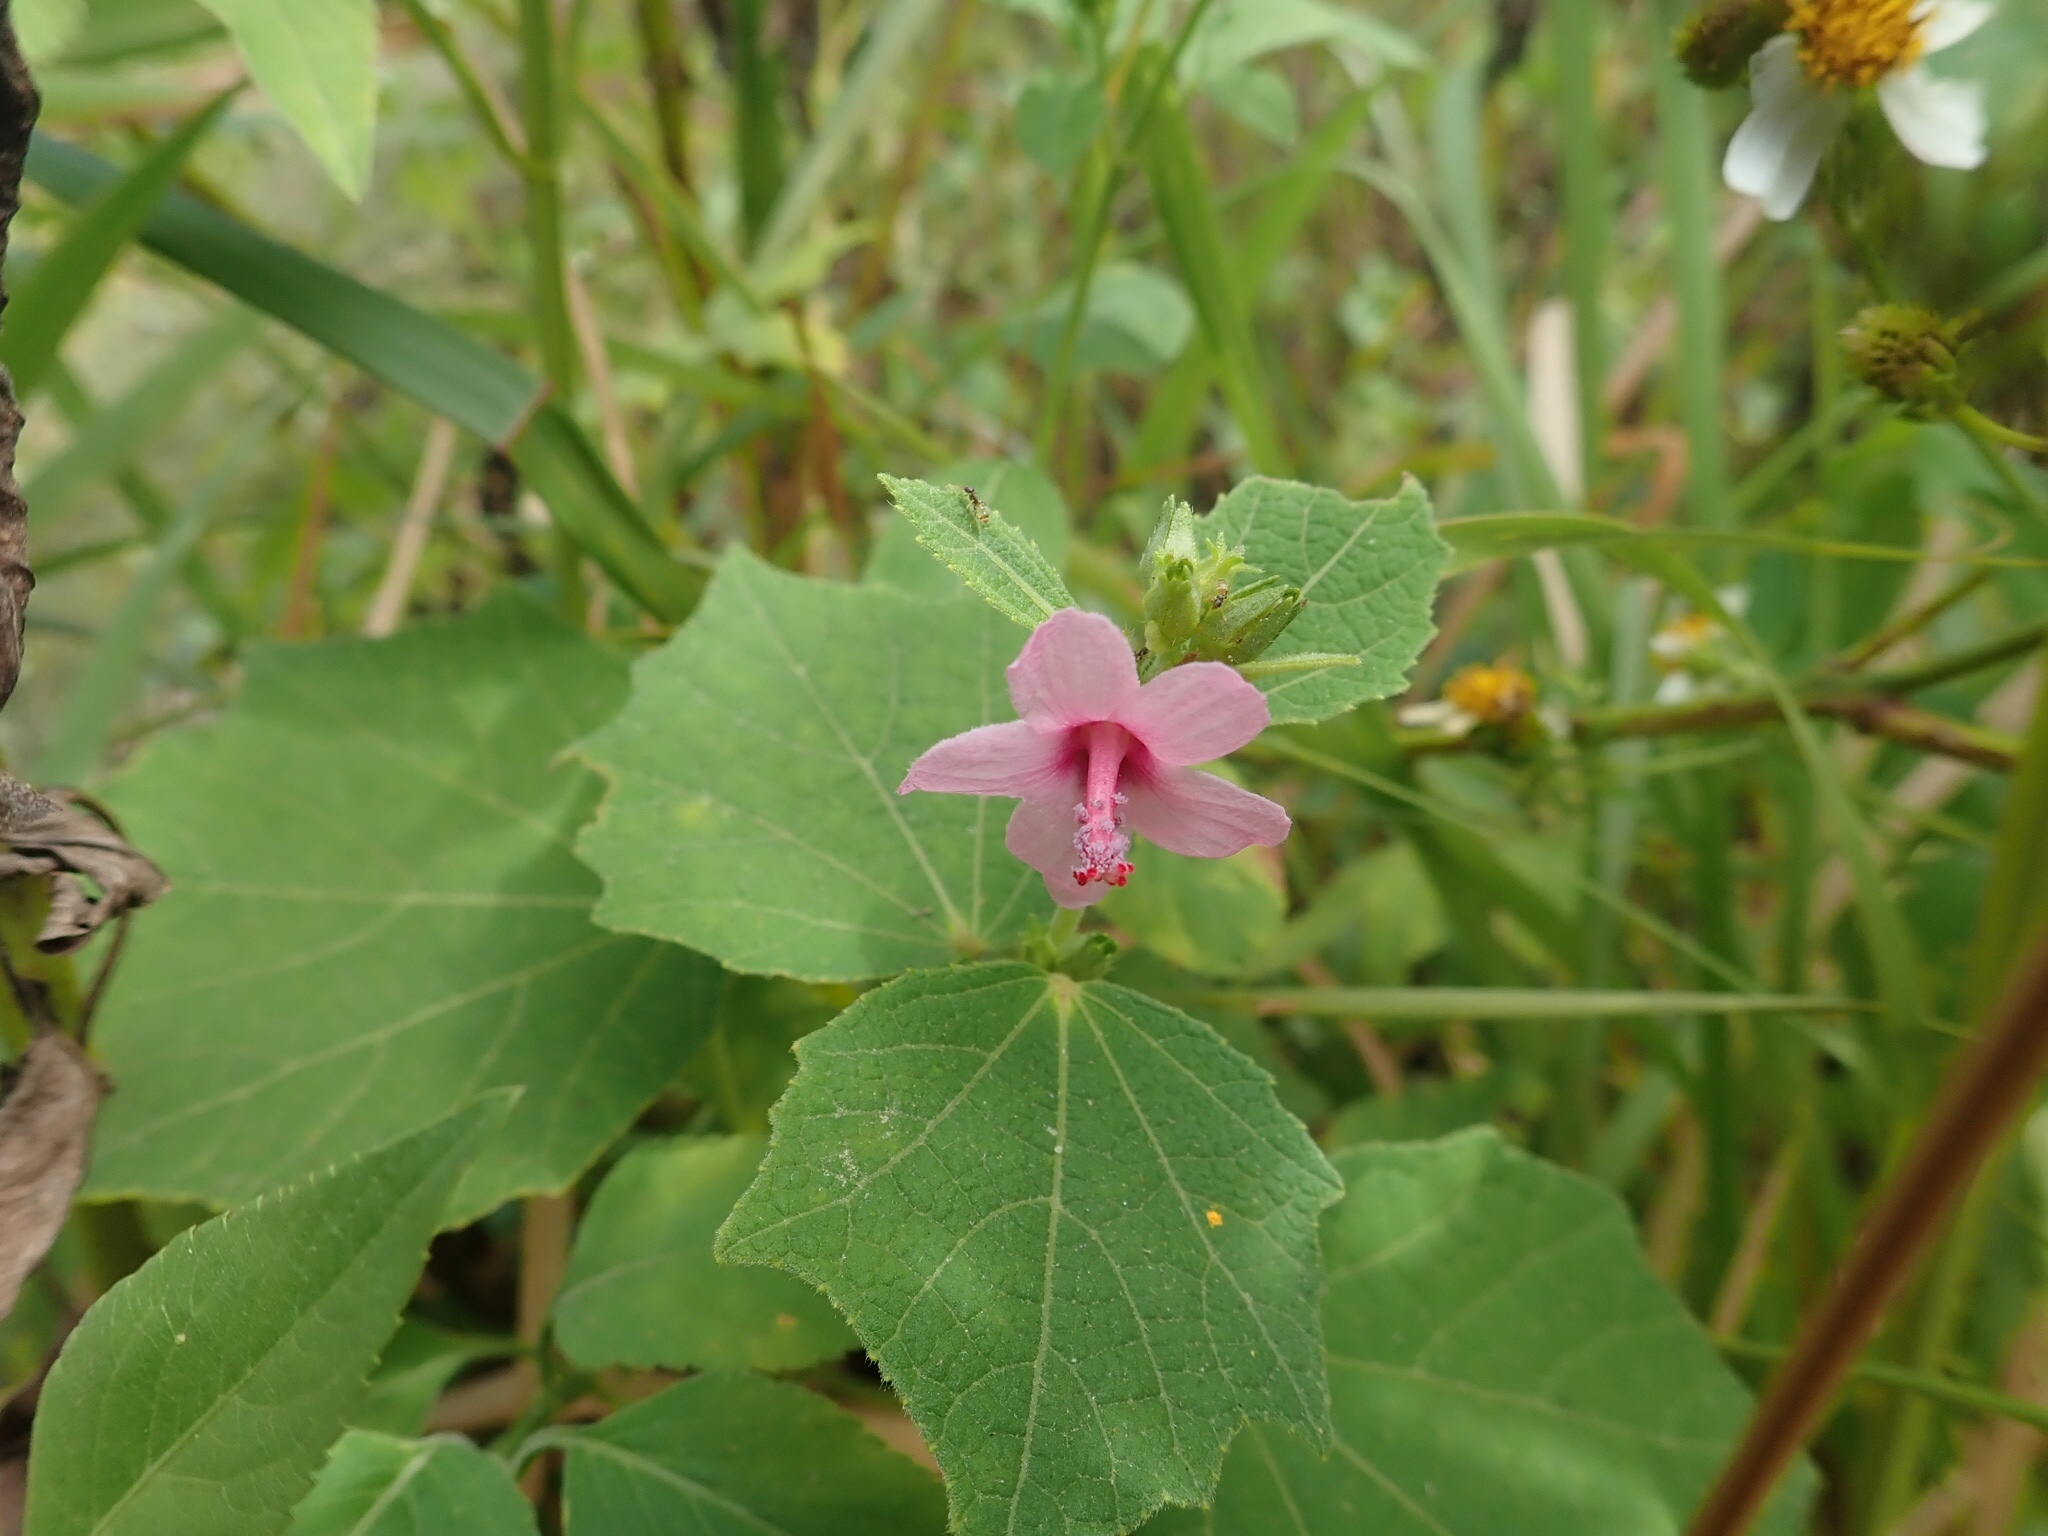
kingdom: Plantae
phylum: Tracheophyta
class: Magnoliopsida
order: Malvales
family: Malvaceae
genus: Urena
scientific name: Urena lobata
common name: Caesarweed
